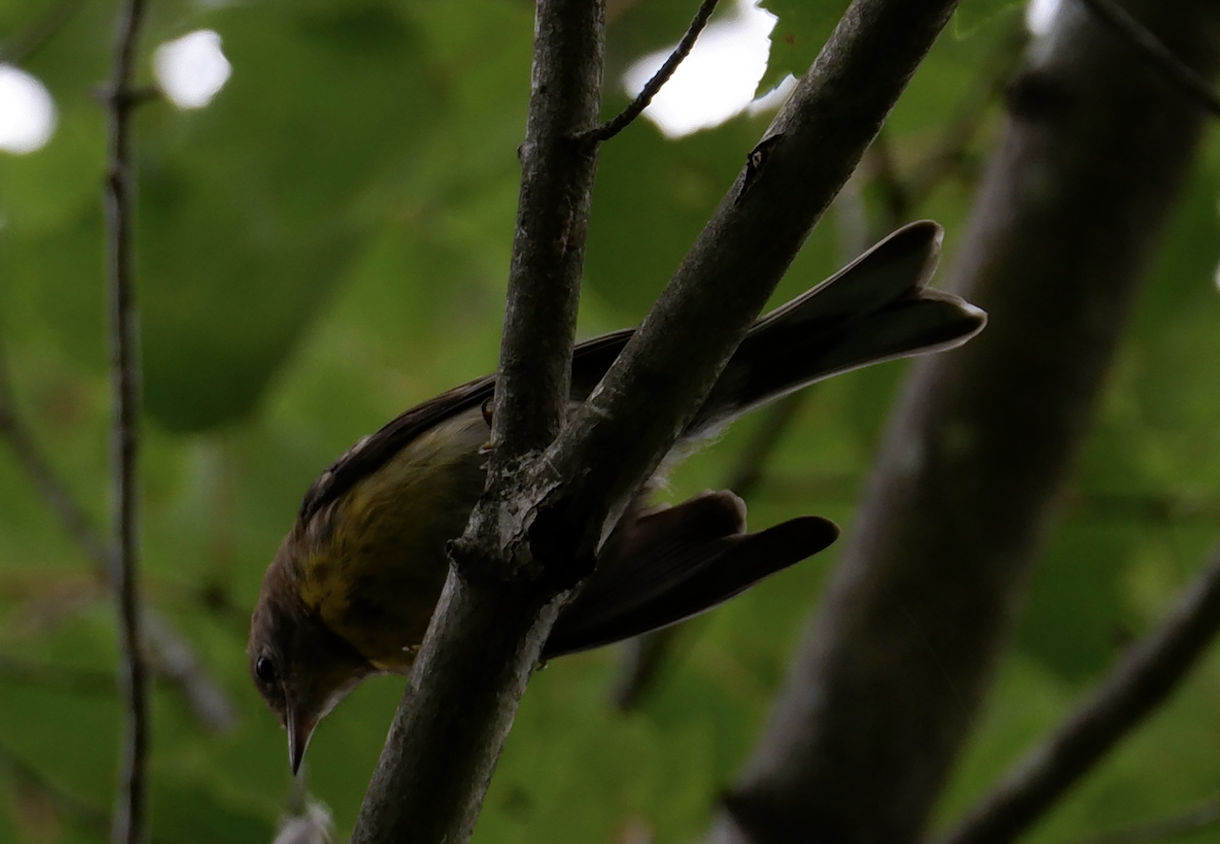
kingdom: Animalia
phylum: Chordata
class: Aves
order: Passeriformes
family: Parulidae
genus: Setophaga
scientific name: Setophaga pinus
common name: Pine warbler
